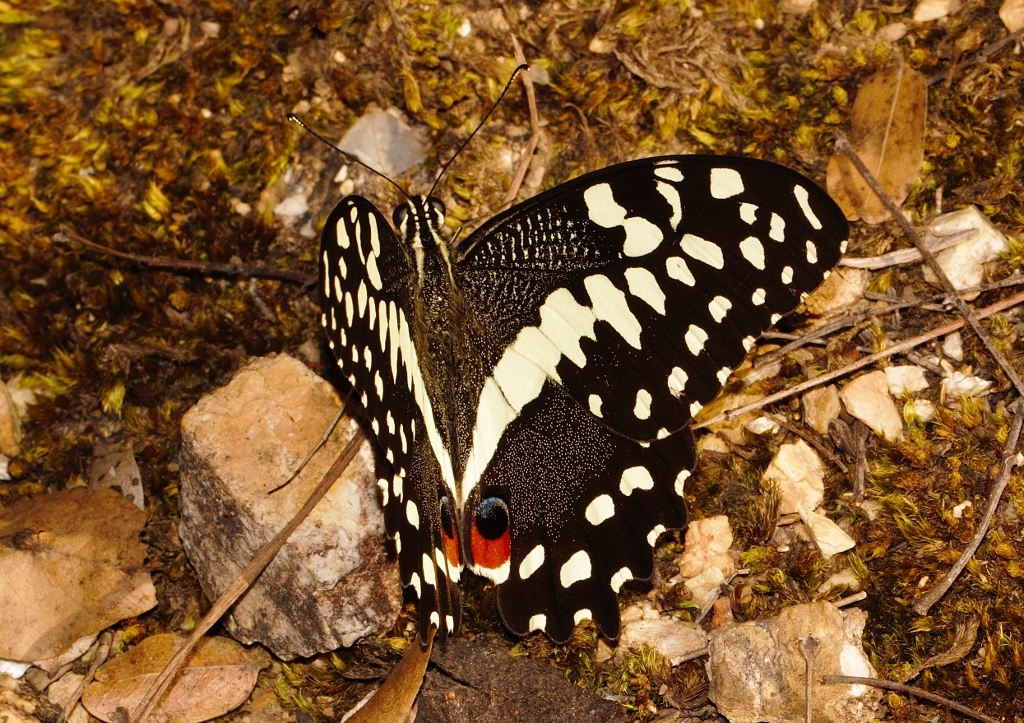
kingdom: Animalia
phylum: Arthropoda
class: Insecta
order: Lepidoptera
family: Papilionidae
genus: Papilio
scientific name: Papilio demodocus
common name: Christmas butterfly
